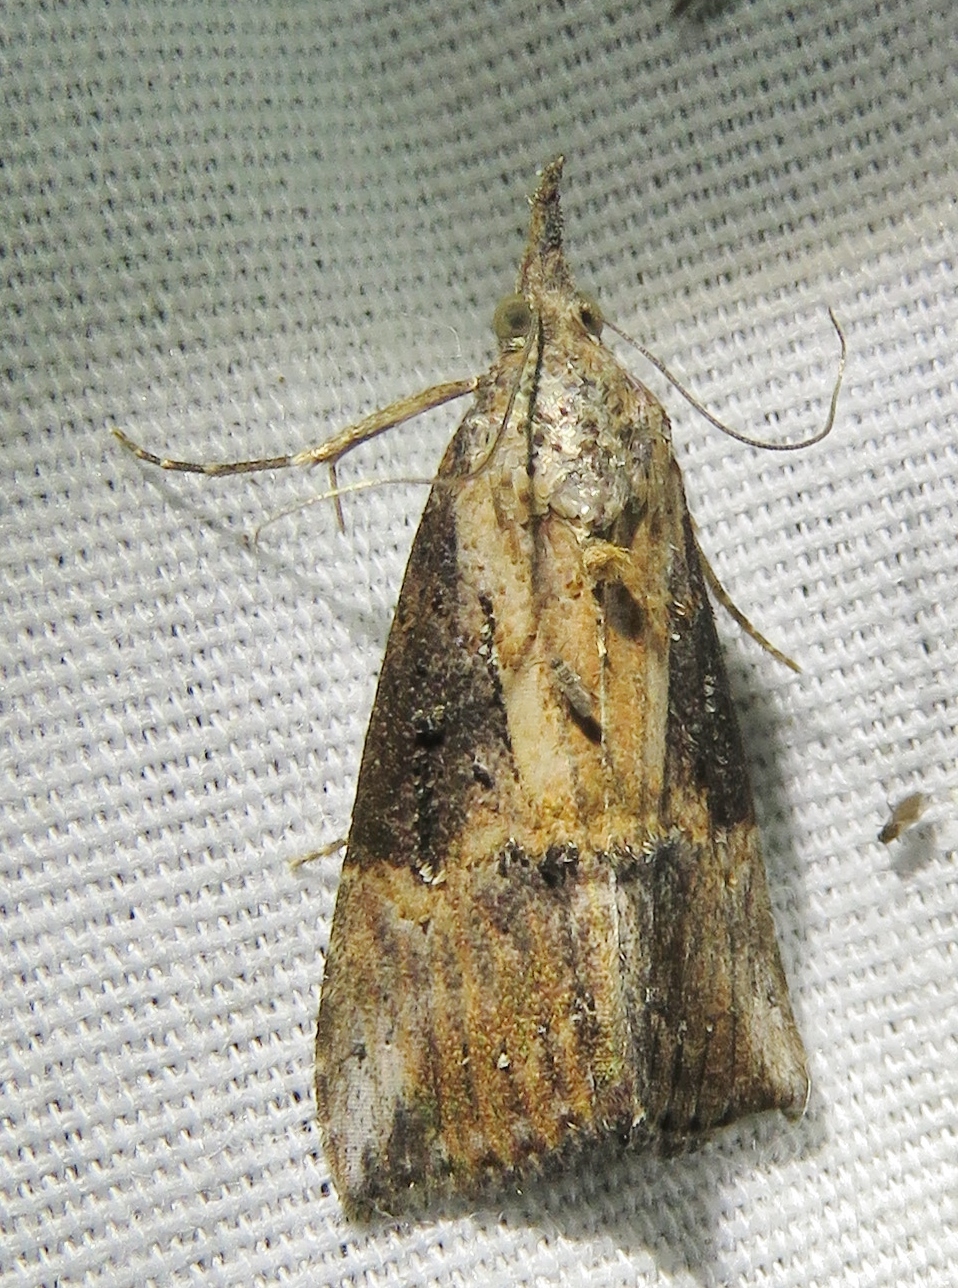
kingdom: Animalia
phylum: Arthropoda
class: Insecta
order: Lepidoptera
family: Erebidae
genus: Hypena
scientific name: Hypena scabra
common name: Green cloverworm
